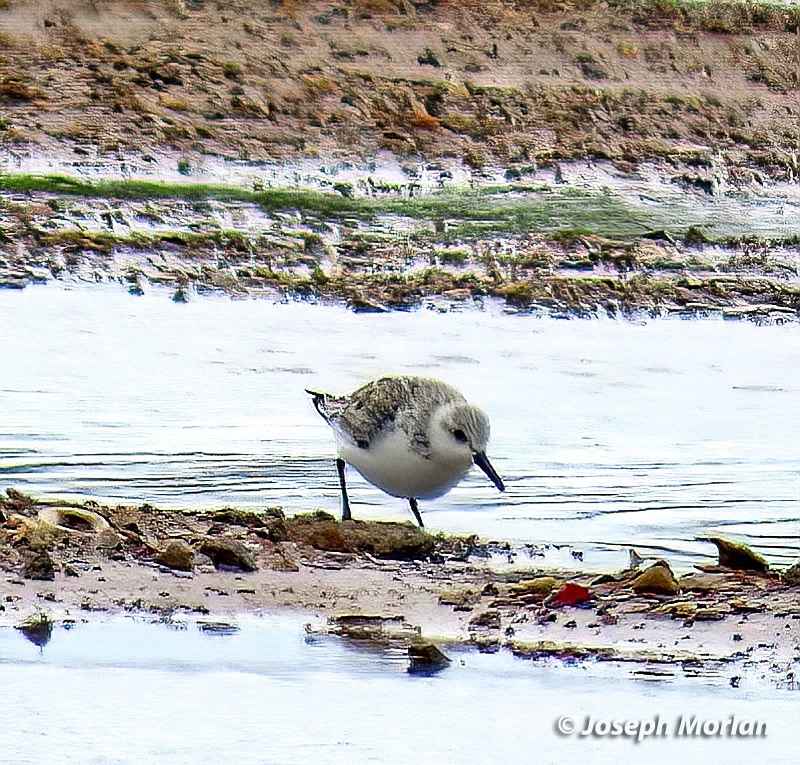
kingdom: Animalia
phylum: Chordata
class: Aves
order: Charadriiformes
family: Scolopacidae
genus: Calidris
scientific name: Calidris alba
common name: Sanderling
